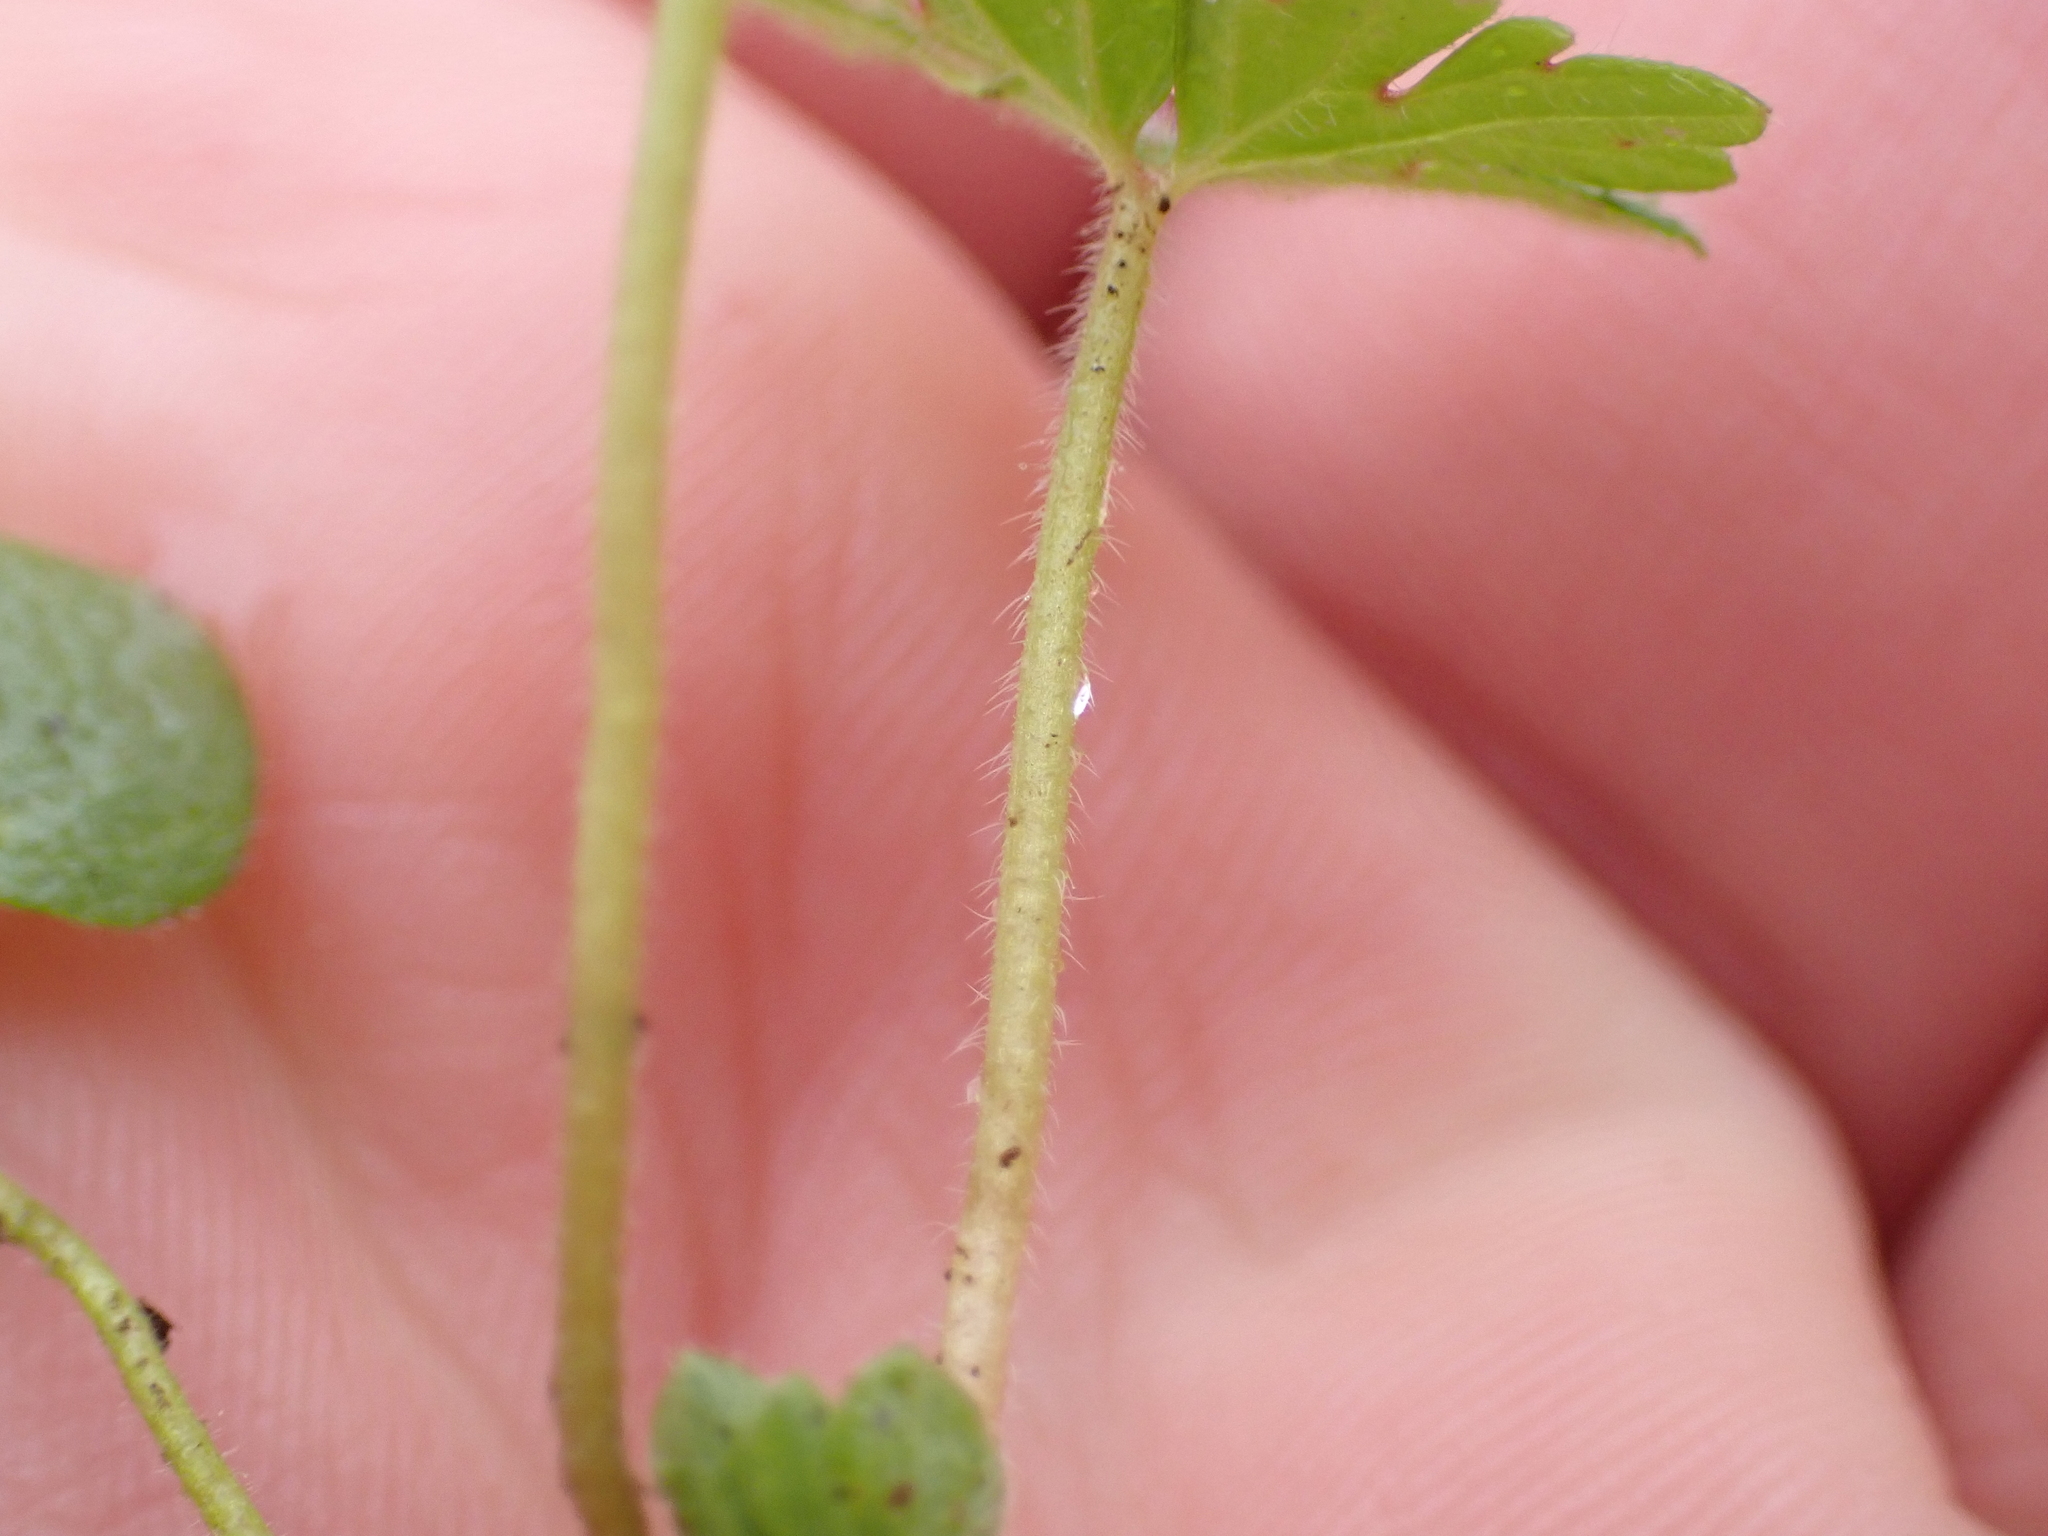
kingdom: Plantae
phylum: Tracheophyta
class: Magnoliopsida
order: Ericales
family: Primulaceae
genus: Lysimachia
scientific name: Lysimachia vulgaris
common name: Yellow loosestrife
